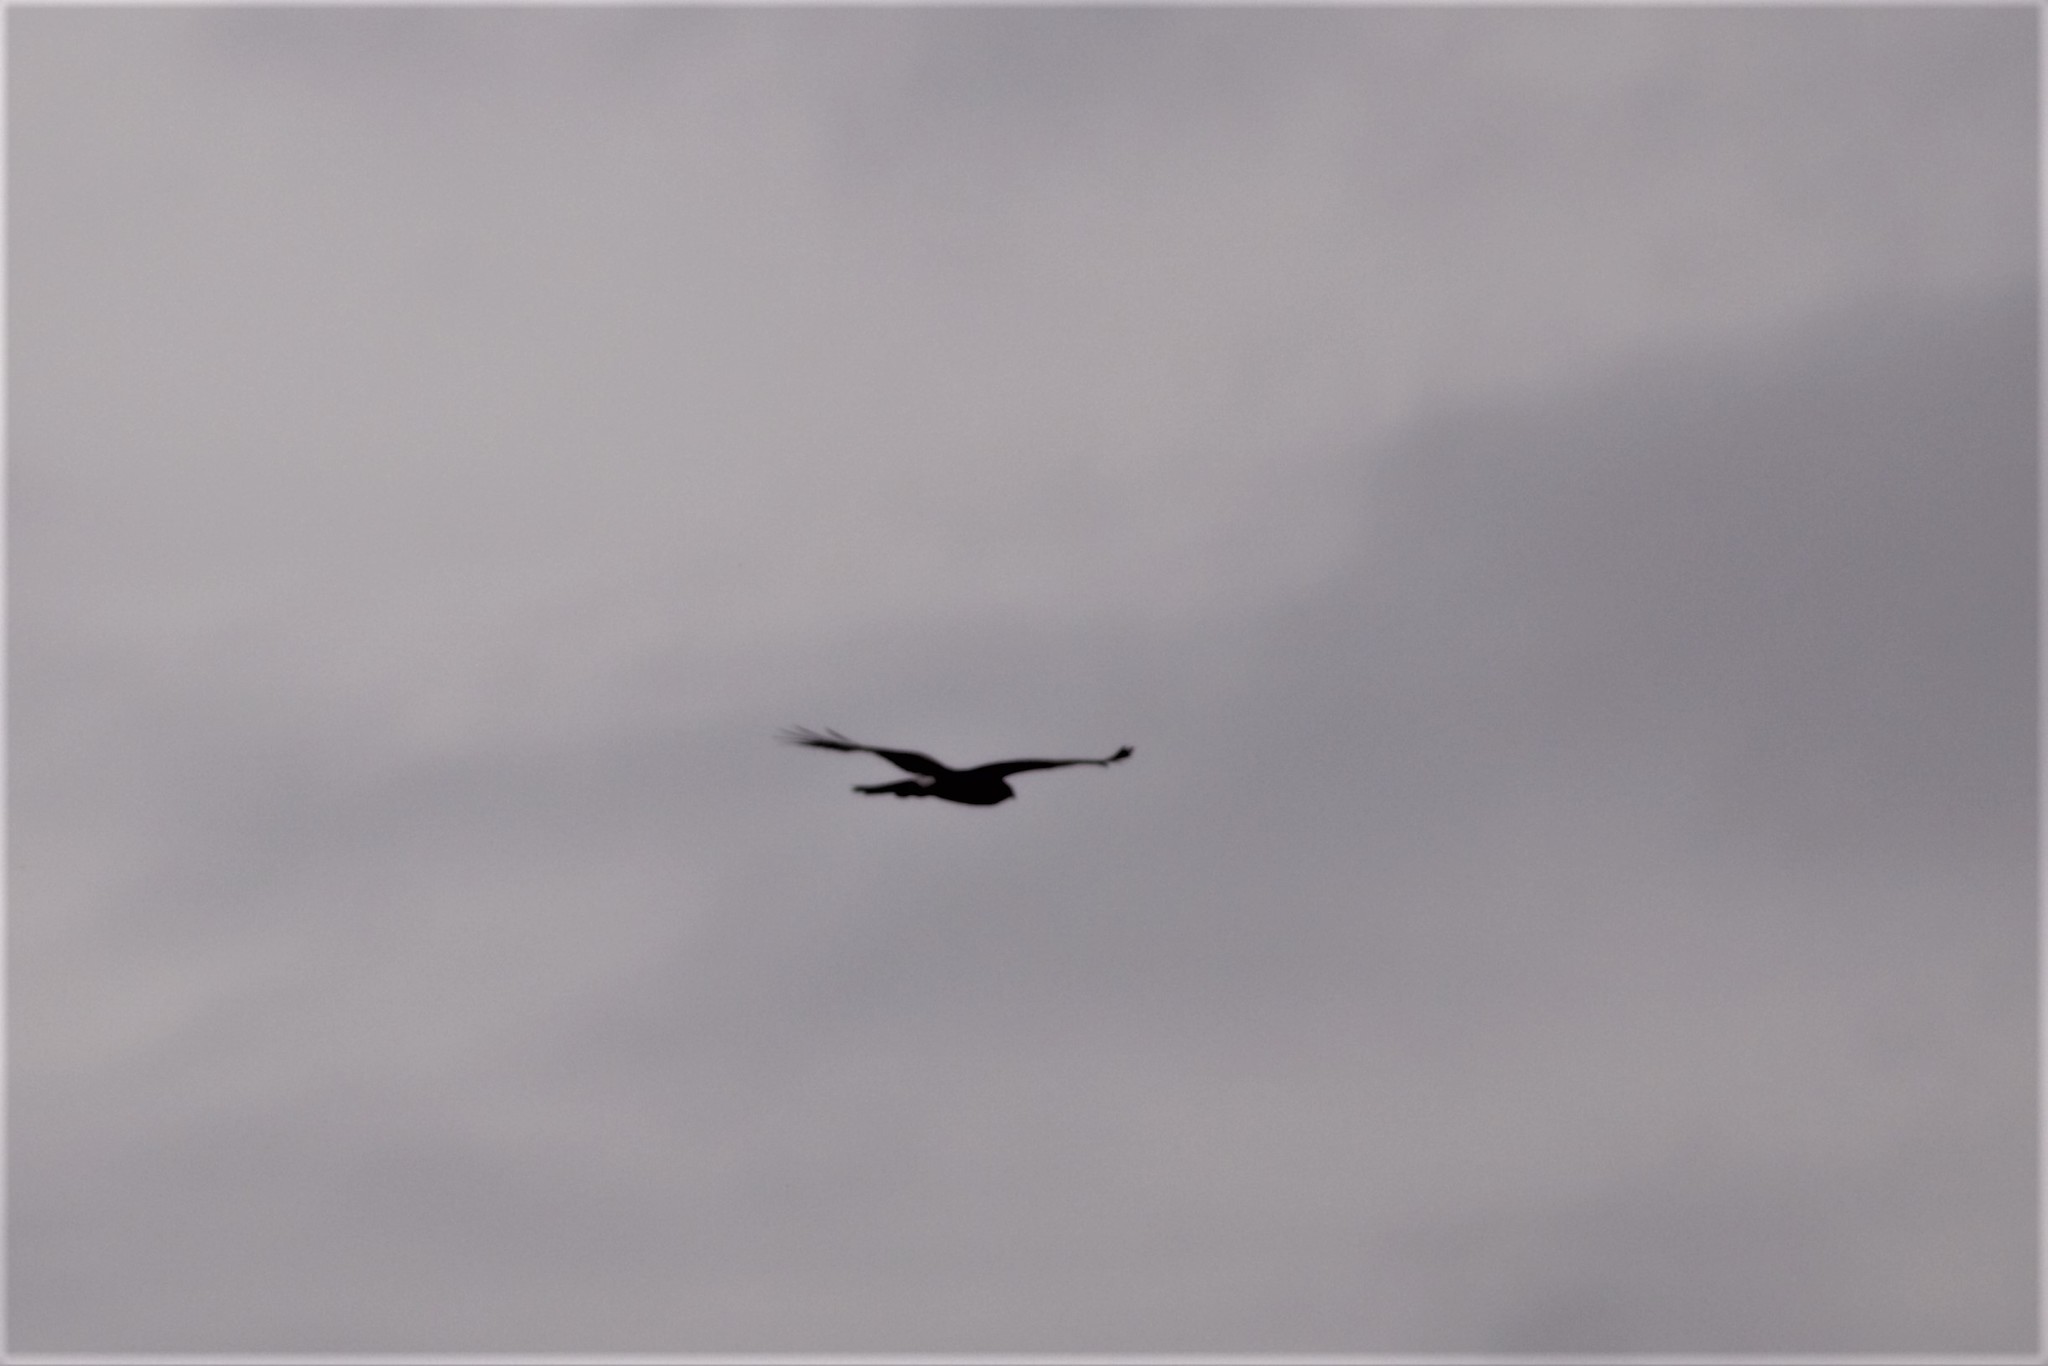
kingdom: Animalia
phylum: Chordata
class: Aves
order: Accipitriformes
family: Accipitridae
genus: Circus
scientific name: Circus cyaneus
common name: Hen harrier
